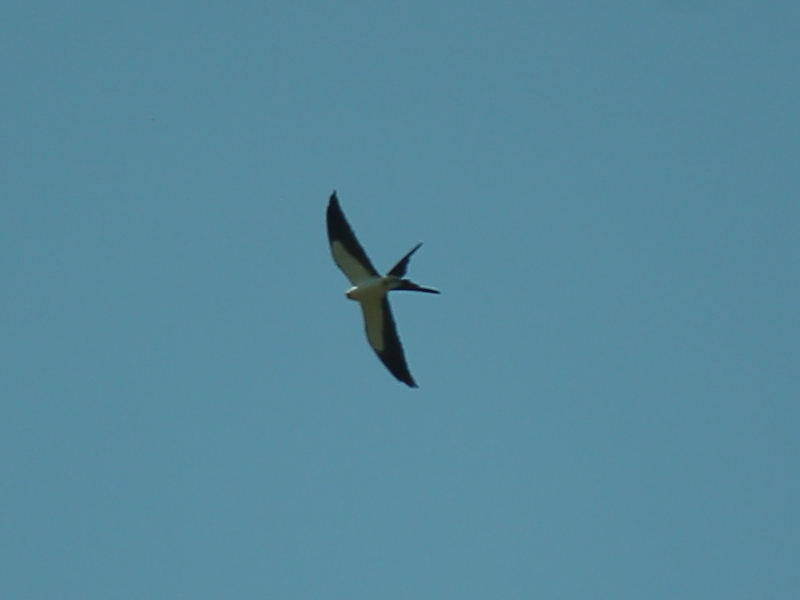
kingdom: Animalia
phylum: Chordata
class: Aves
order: Accipitriformes
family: Accipitridae
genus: Elanoides
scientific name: Elanoides forficatus
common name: Swallow-tailed kite
